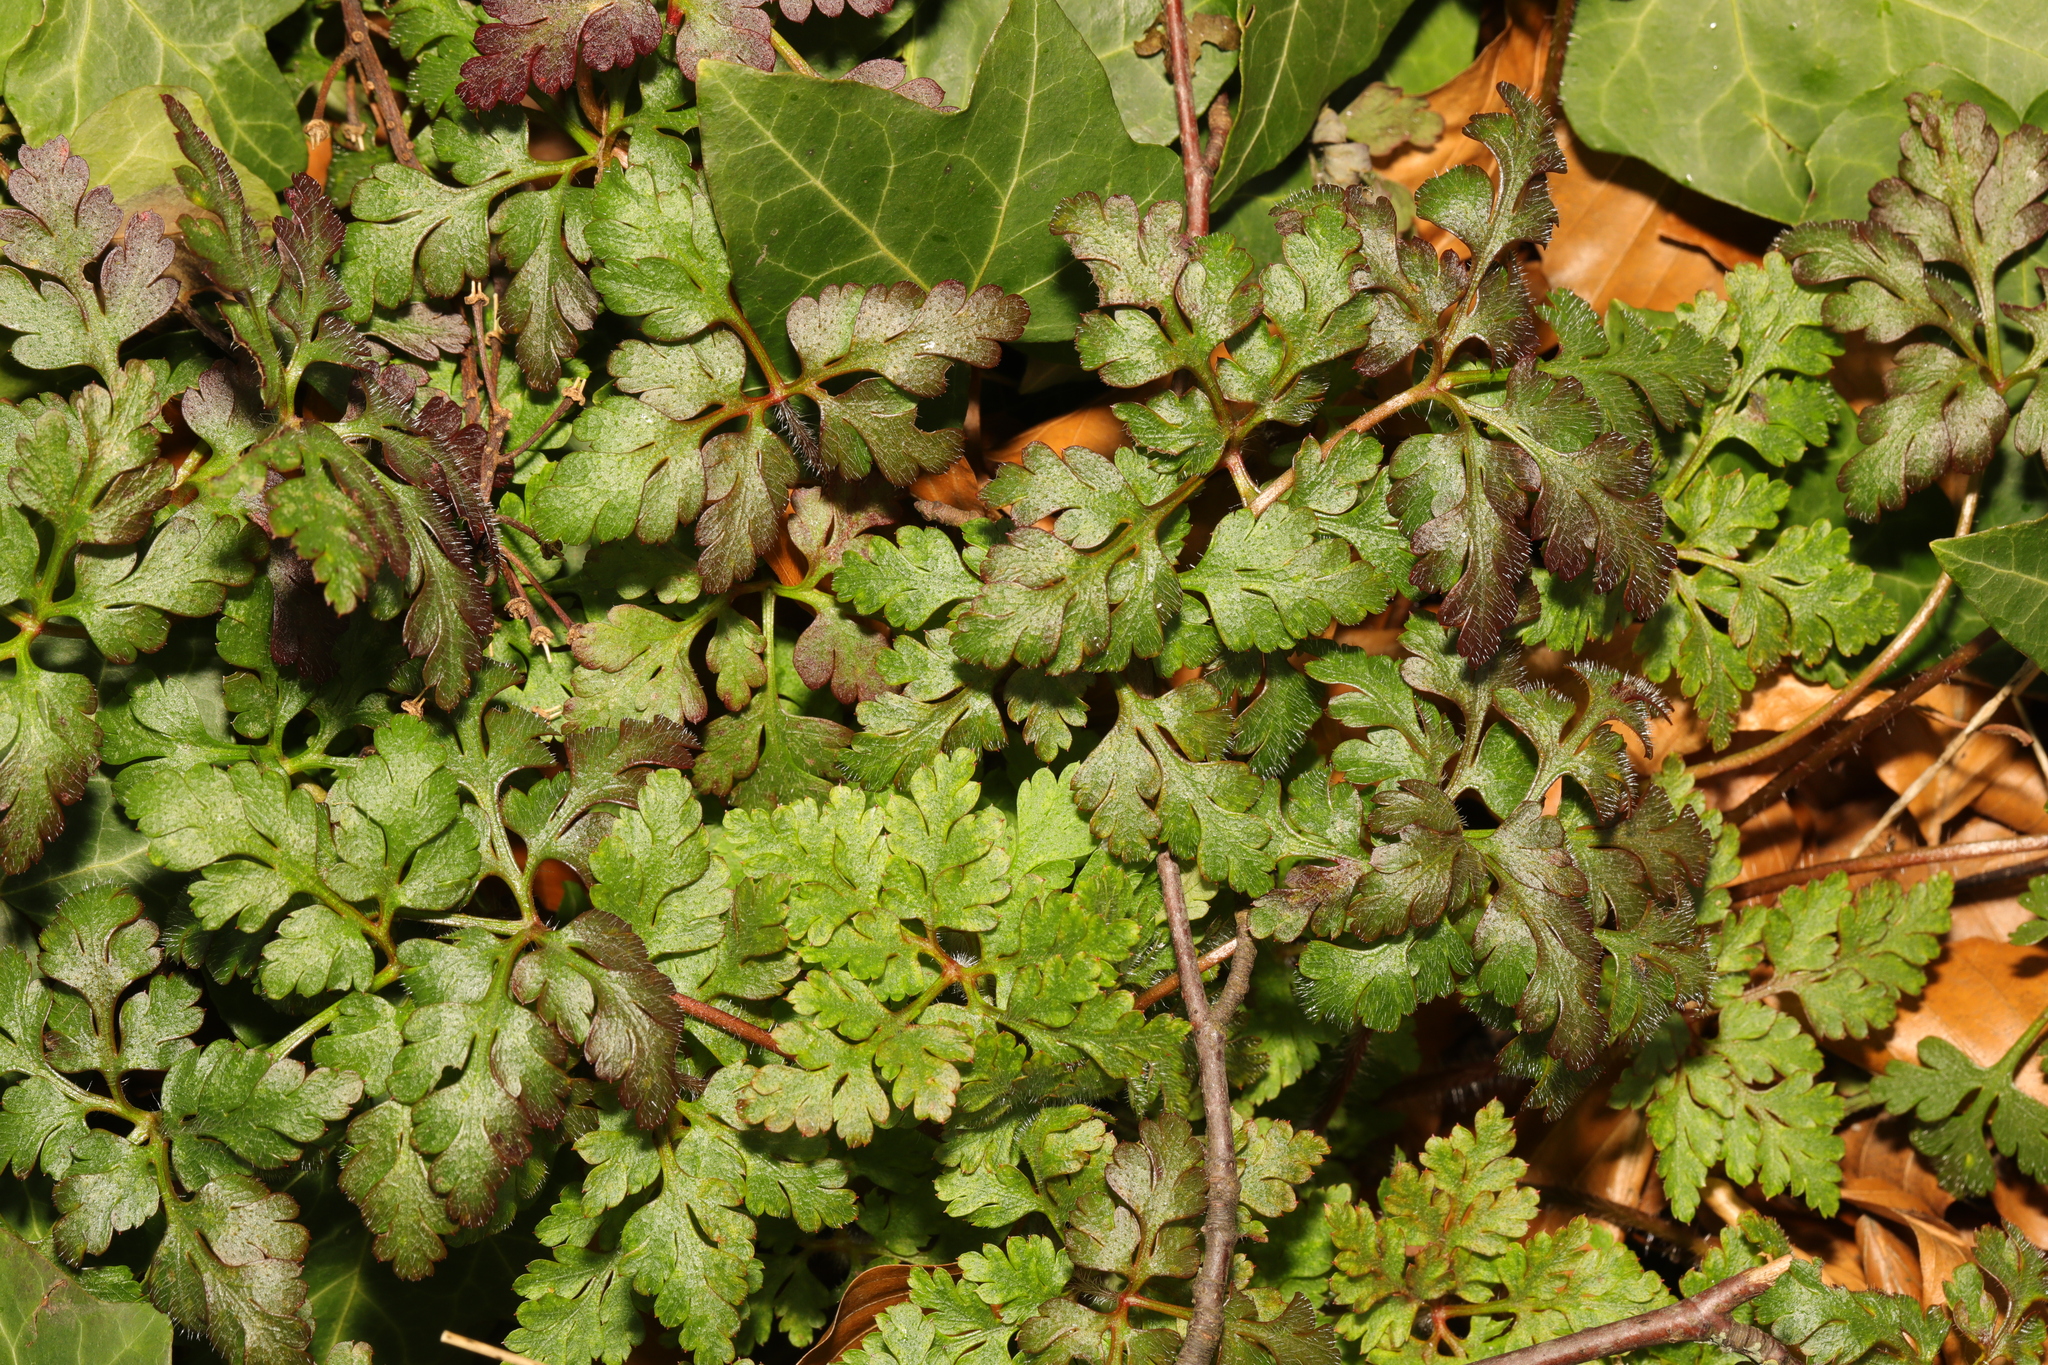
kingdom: Plantae
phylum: Tracheophyta
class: Magnoliopsida
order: Geraniales
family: Geraniaceae
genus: Geranium
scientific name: Geranium robertianum
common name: Herb-robert
